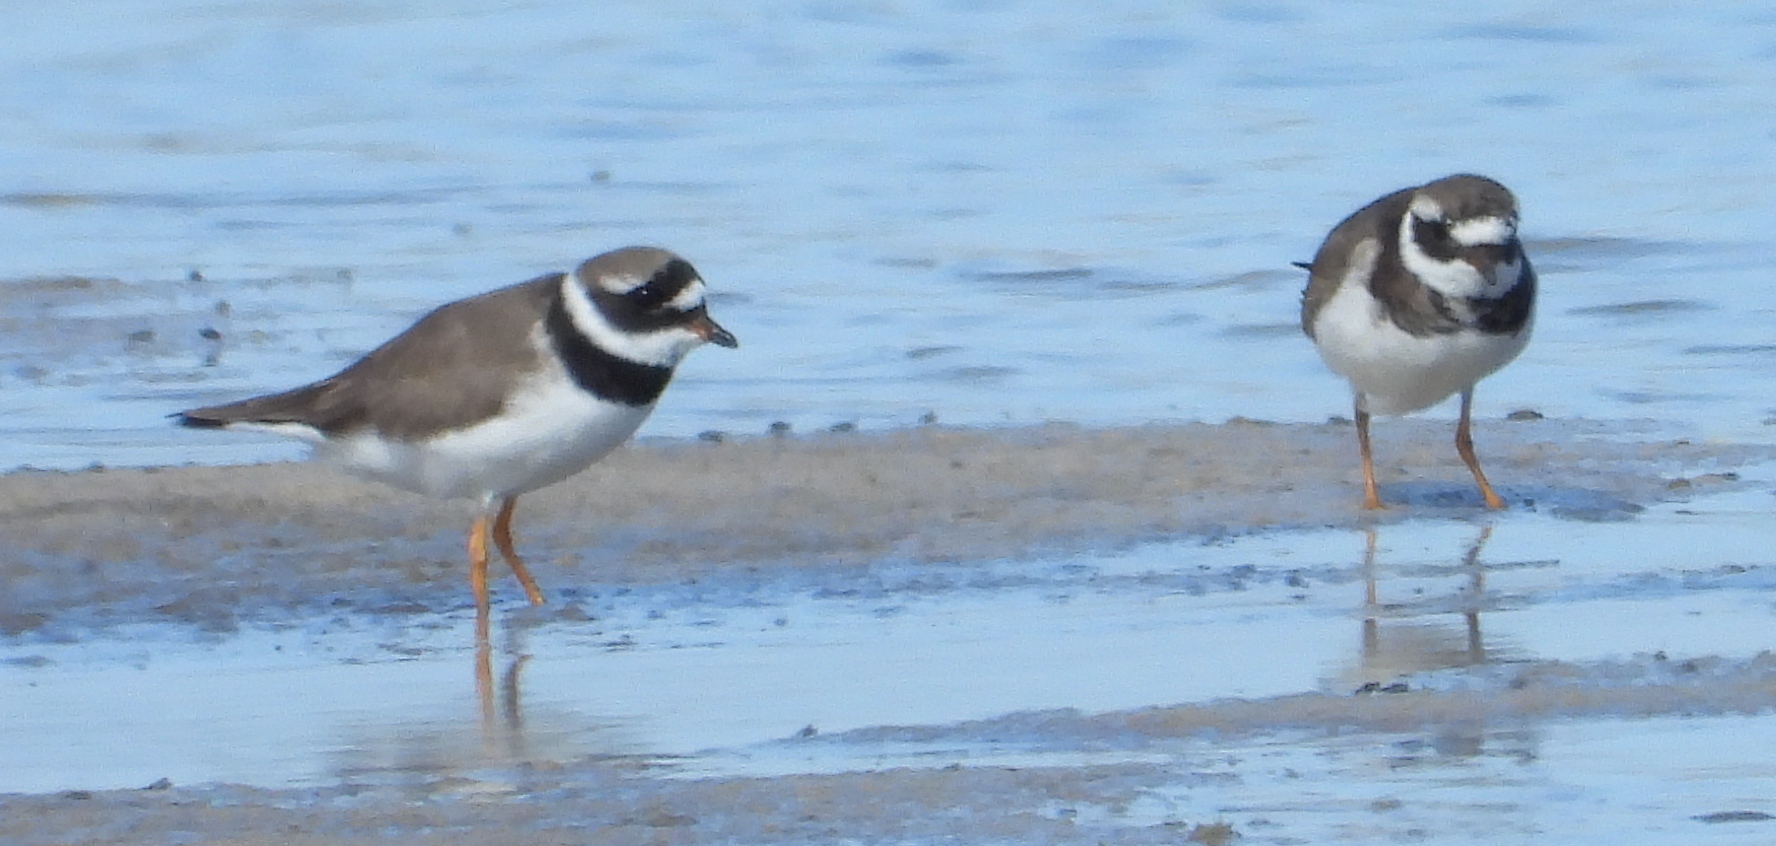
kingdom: Animalia
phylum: Chordata
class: Aves
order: Charadriiformes
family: Charadriidae
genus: Charadrius
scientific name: Charadrius hiaticula
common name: Common ringed plover
